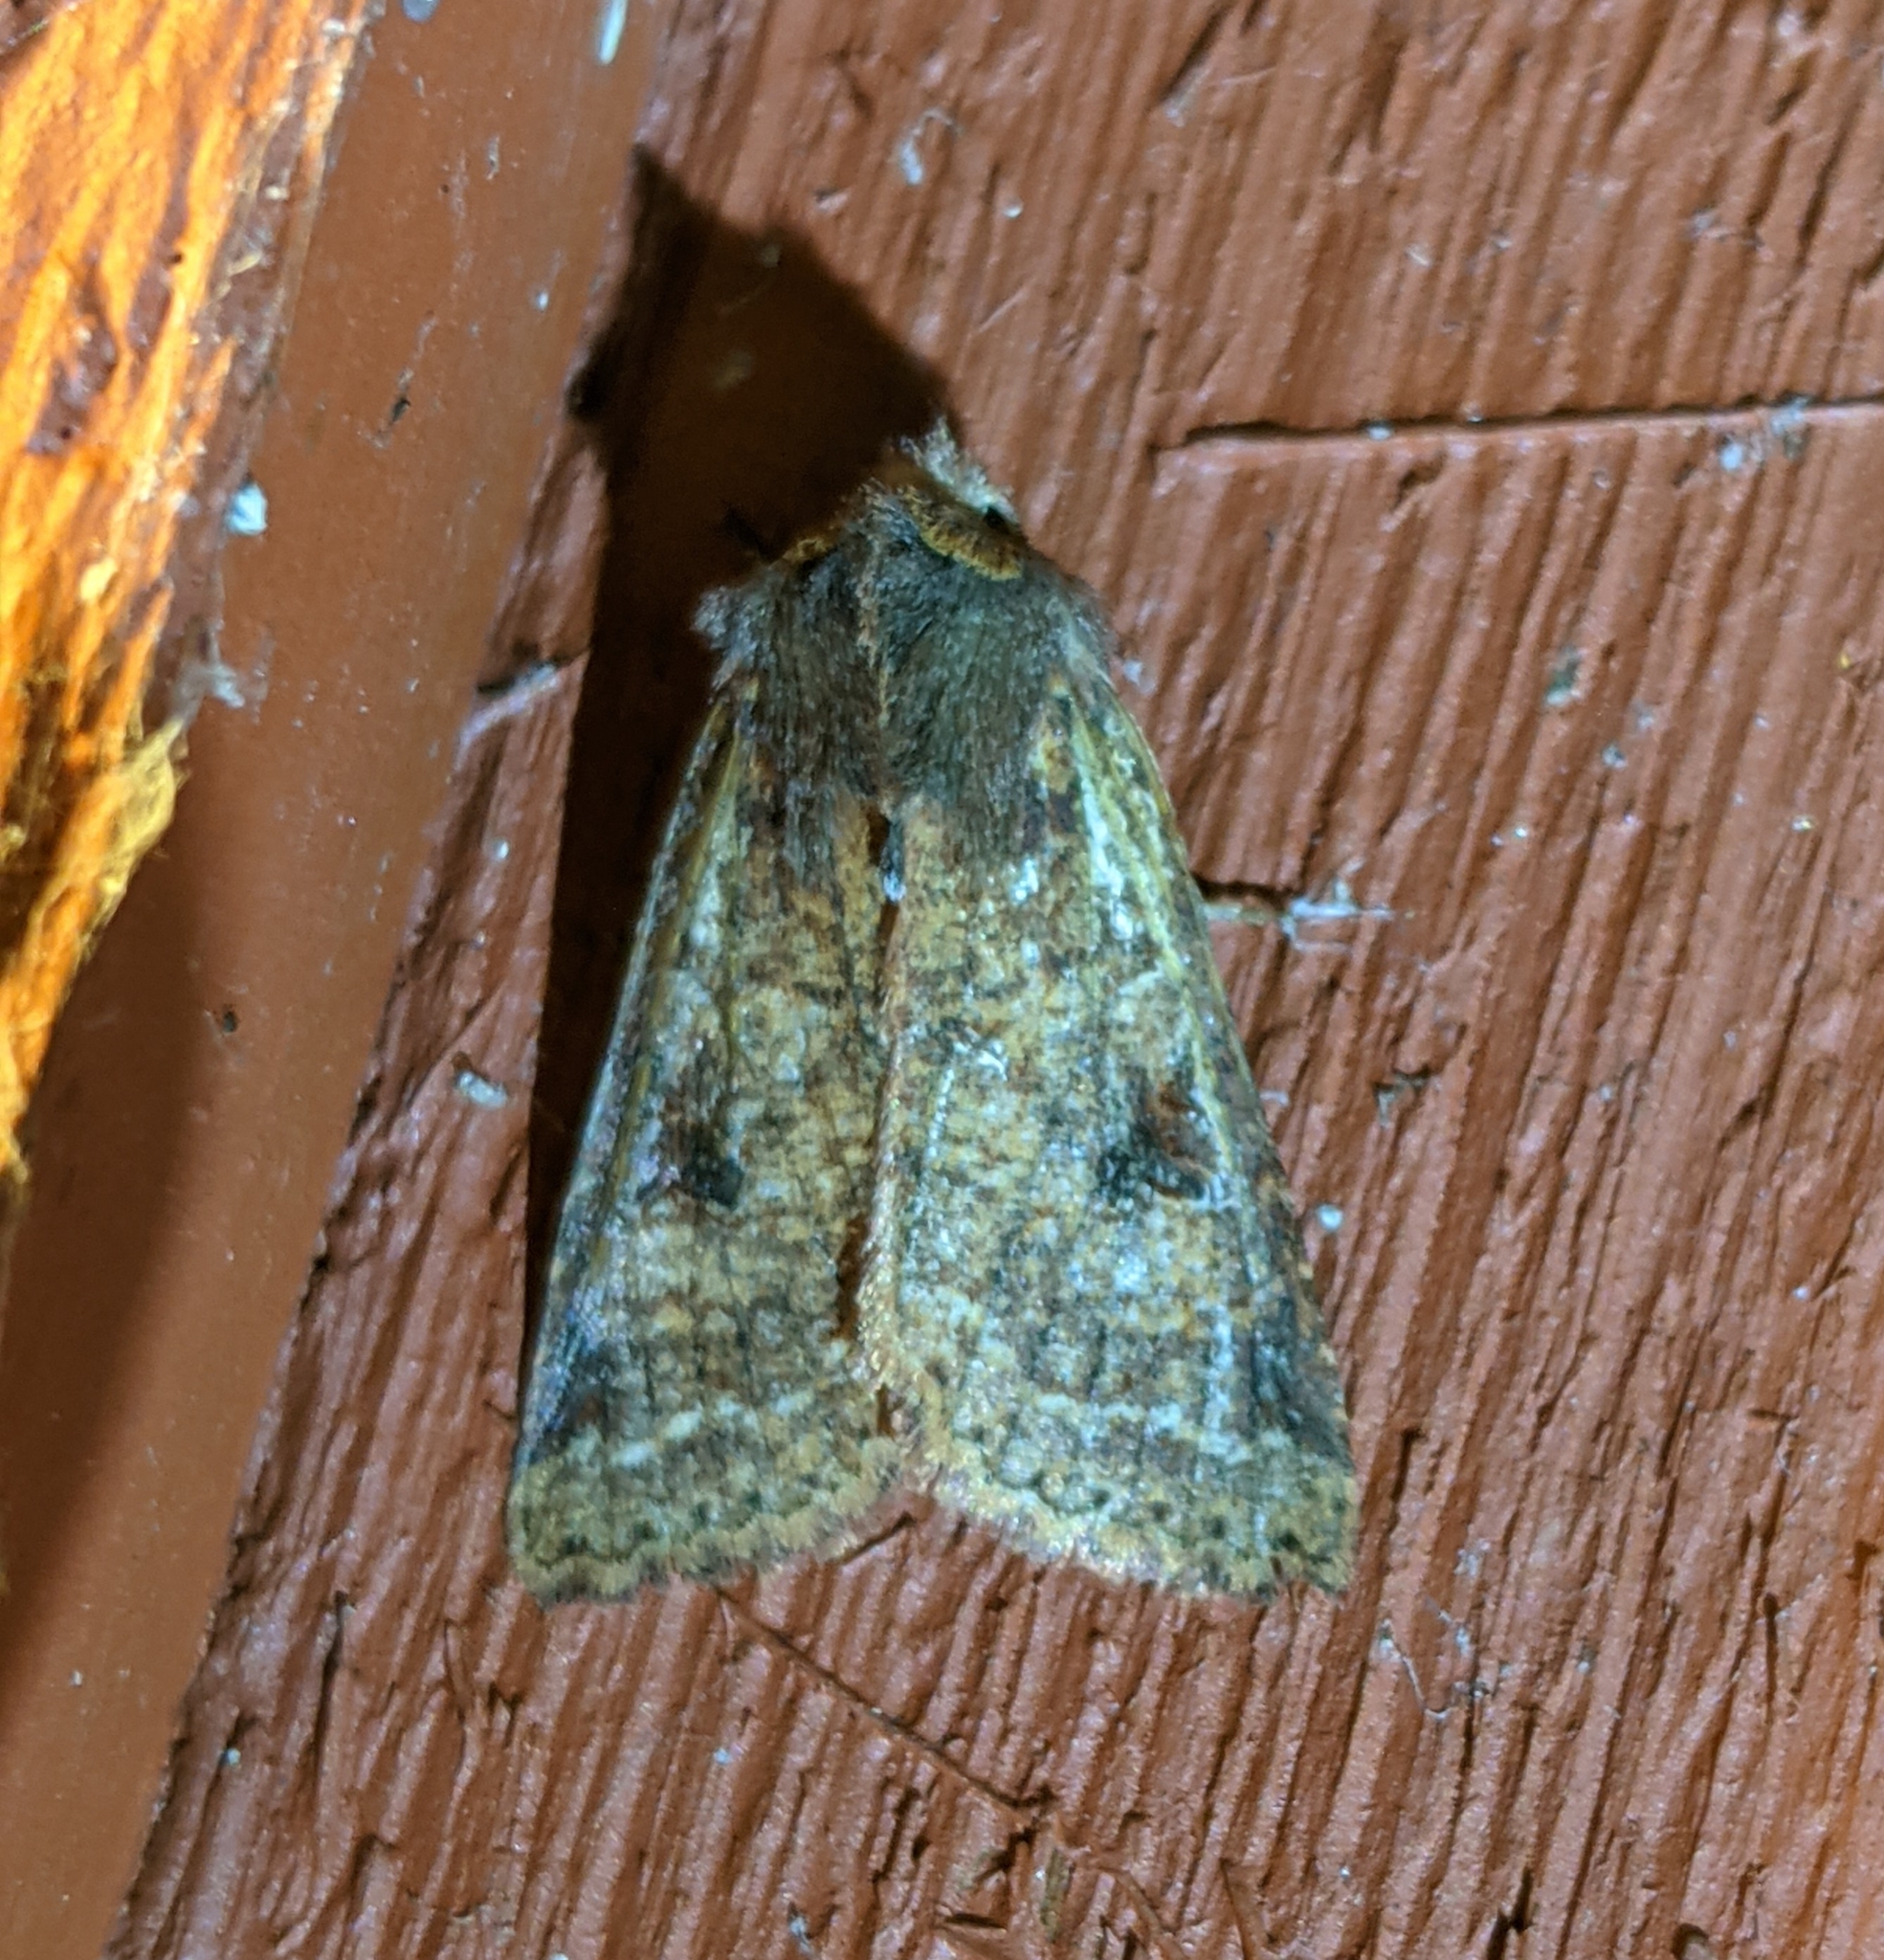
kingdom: Animalia
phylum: Arthropoda
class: Insecta
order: Lepidoptera
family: Noctuidae
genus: Orthosia
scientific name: Orthosia praeses
